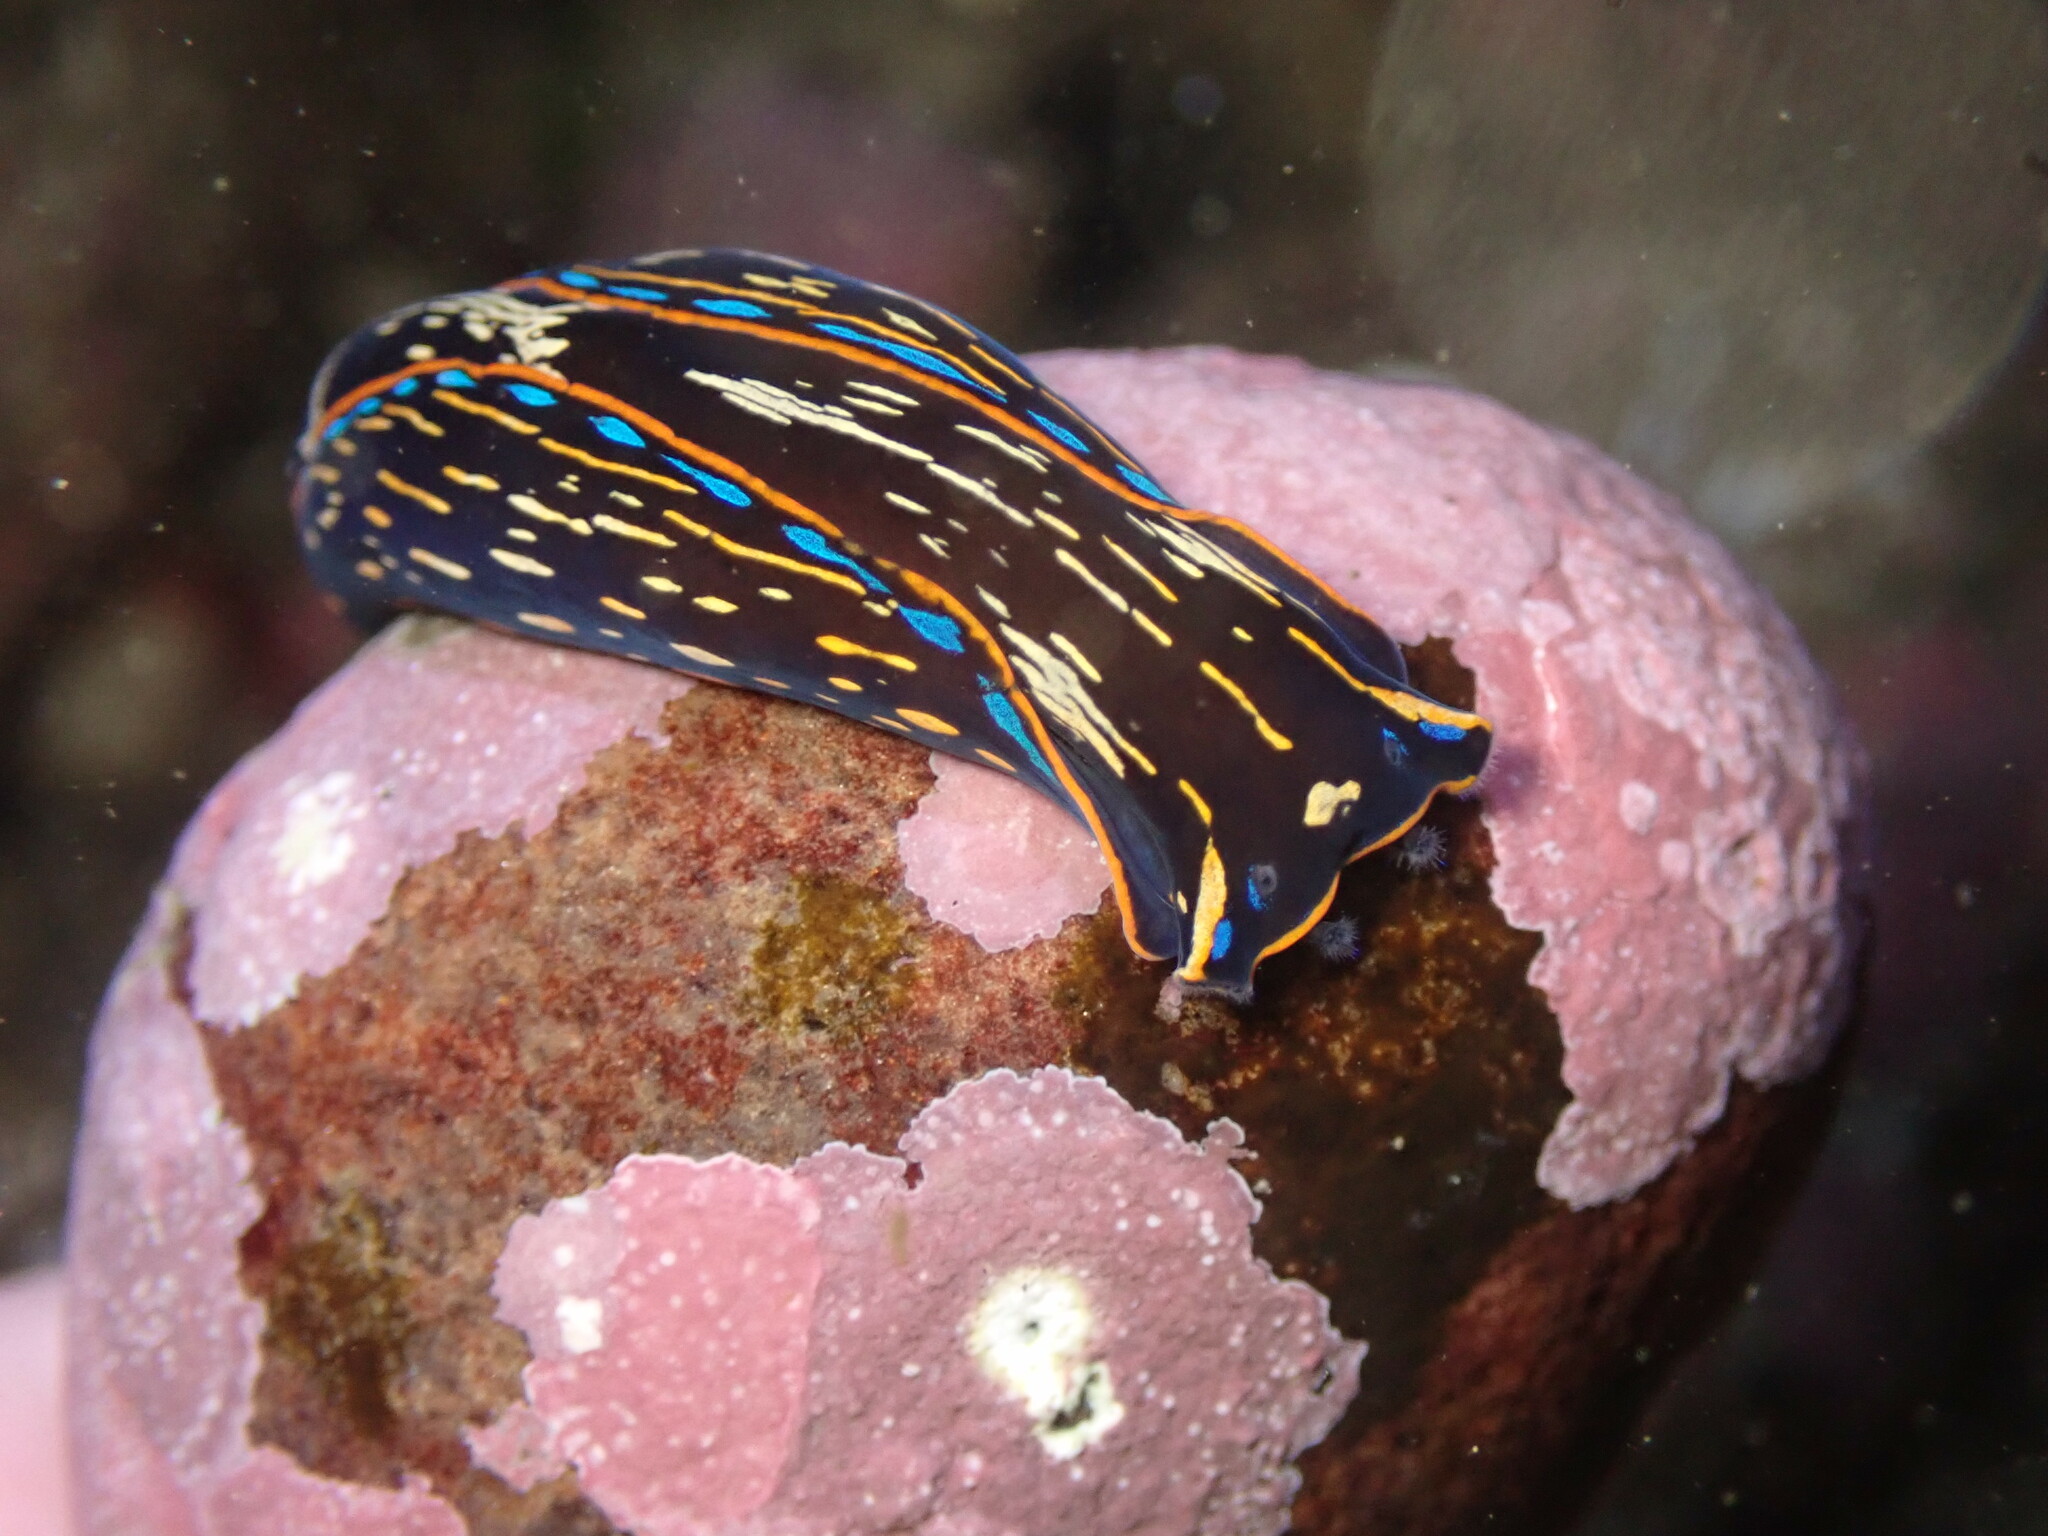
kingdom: Animalia
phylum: Mollusca
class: Gastropoda
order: Cephalaspidea
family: Aglajidae
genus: Navanax
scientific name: Navanax inermis
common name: California aglaja
